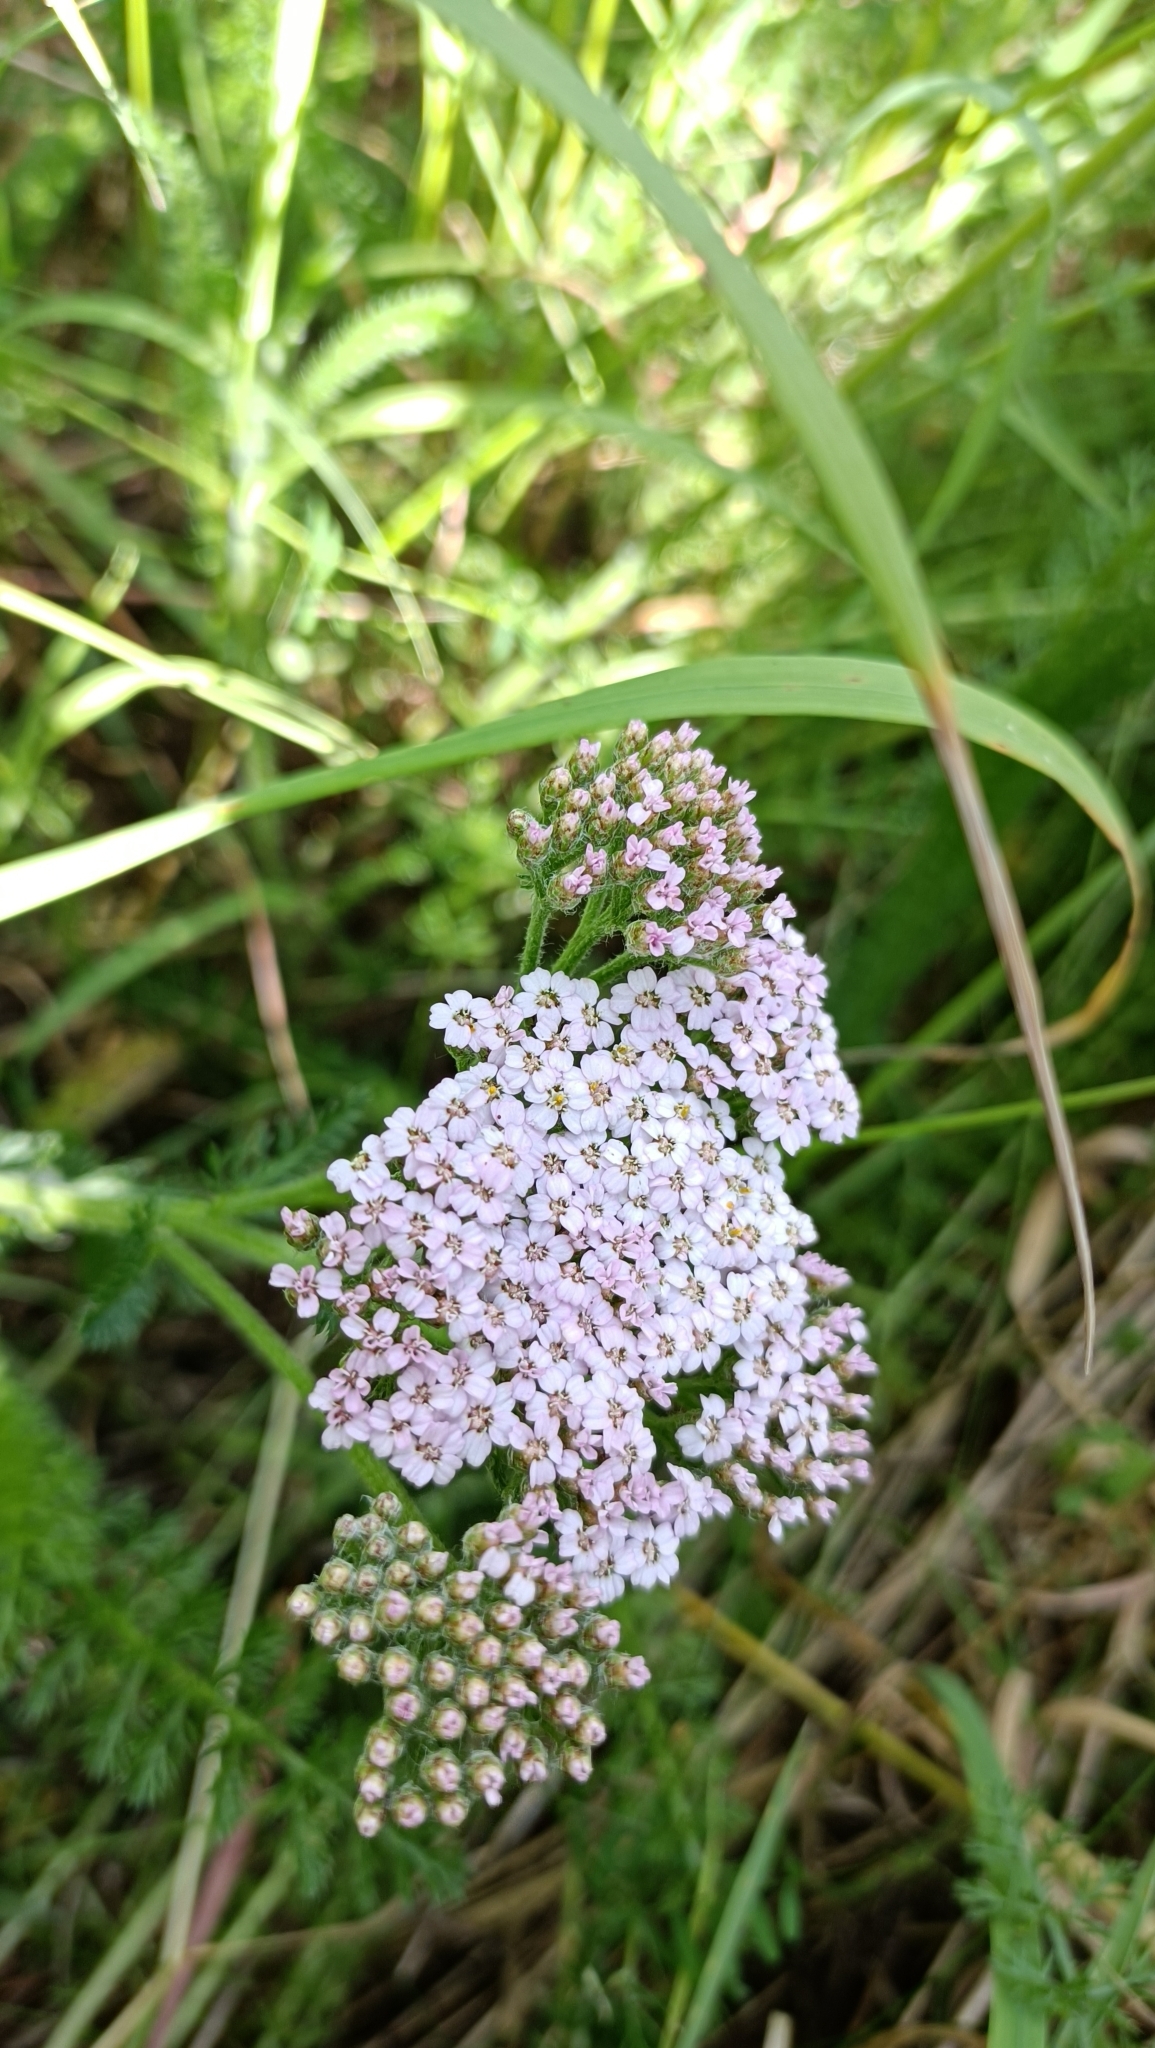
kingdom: Plantae
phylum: Tracheophyta
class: Magnoliopsida
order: Asterales
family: Asteraceae
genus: Achillea
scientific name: Achillea millefolium
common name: Yarrow
